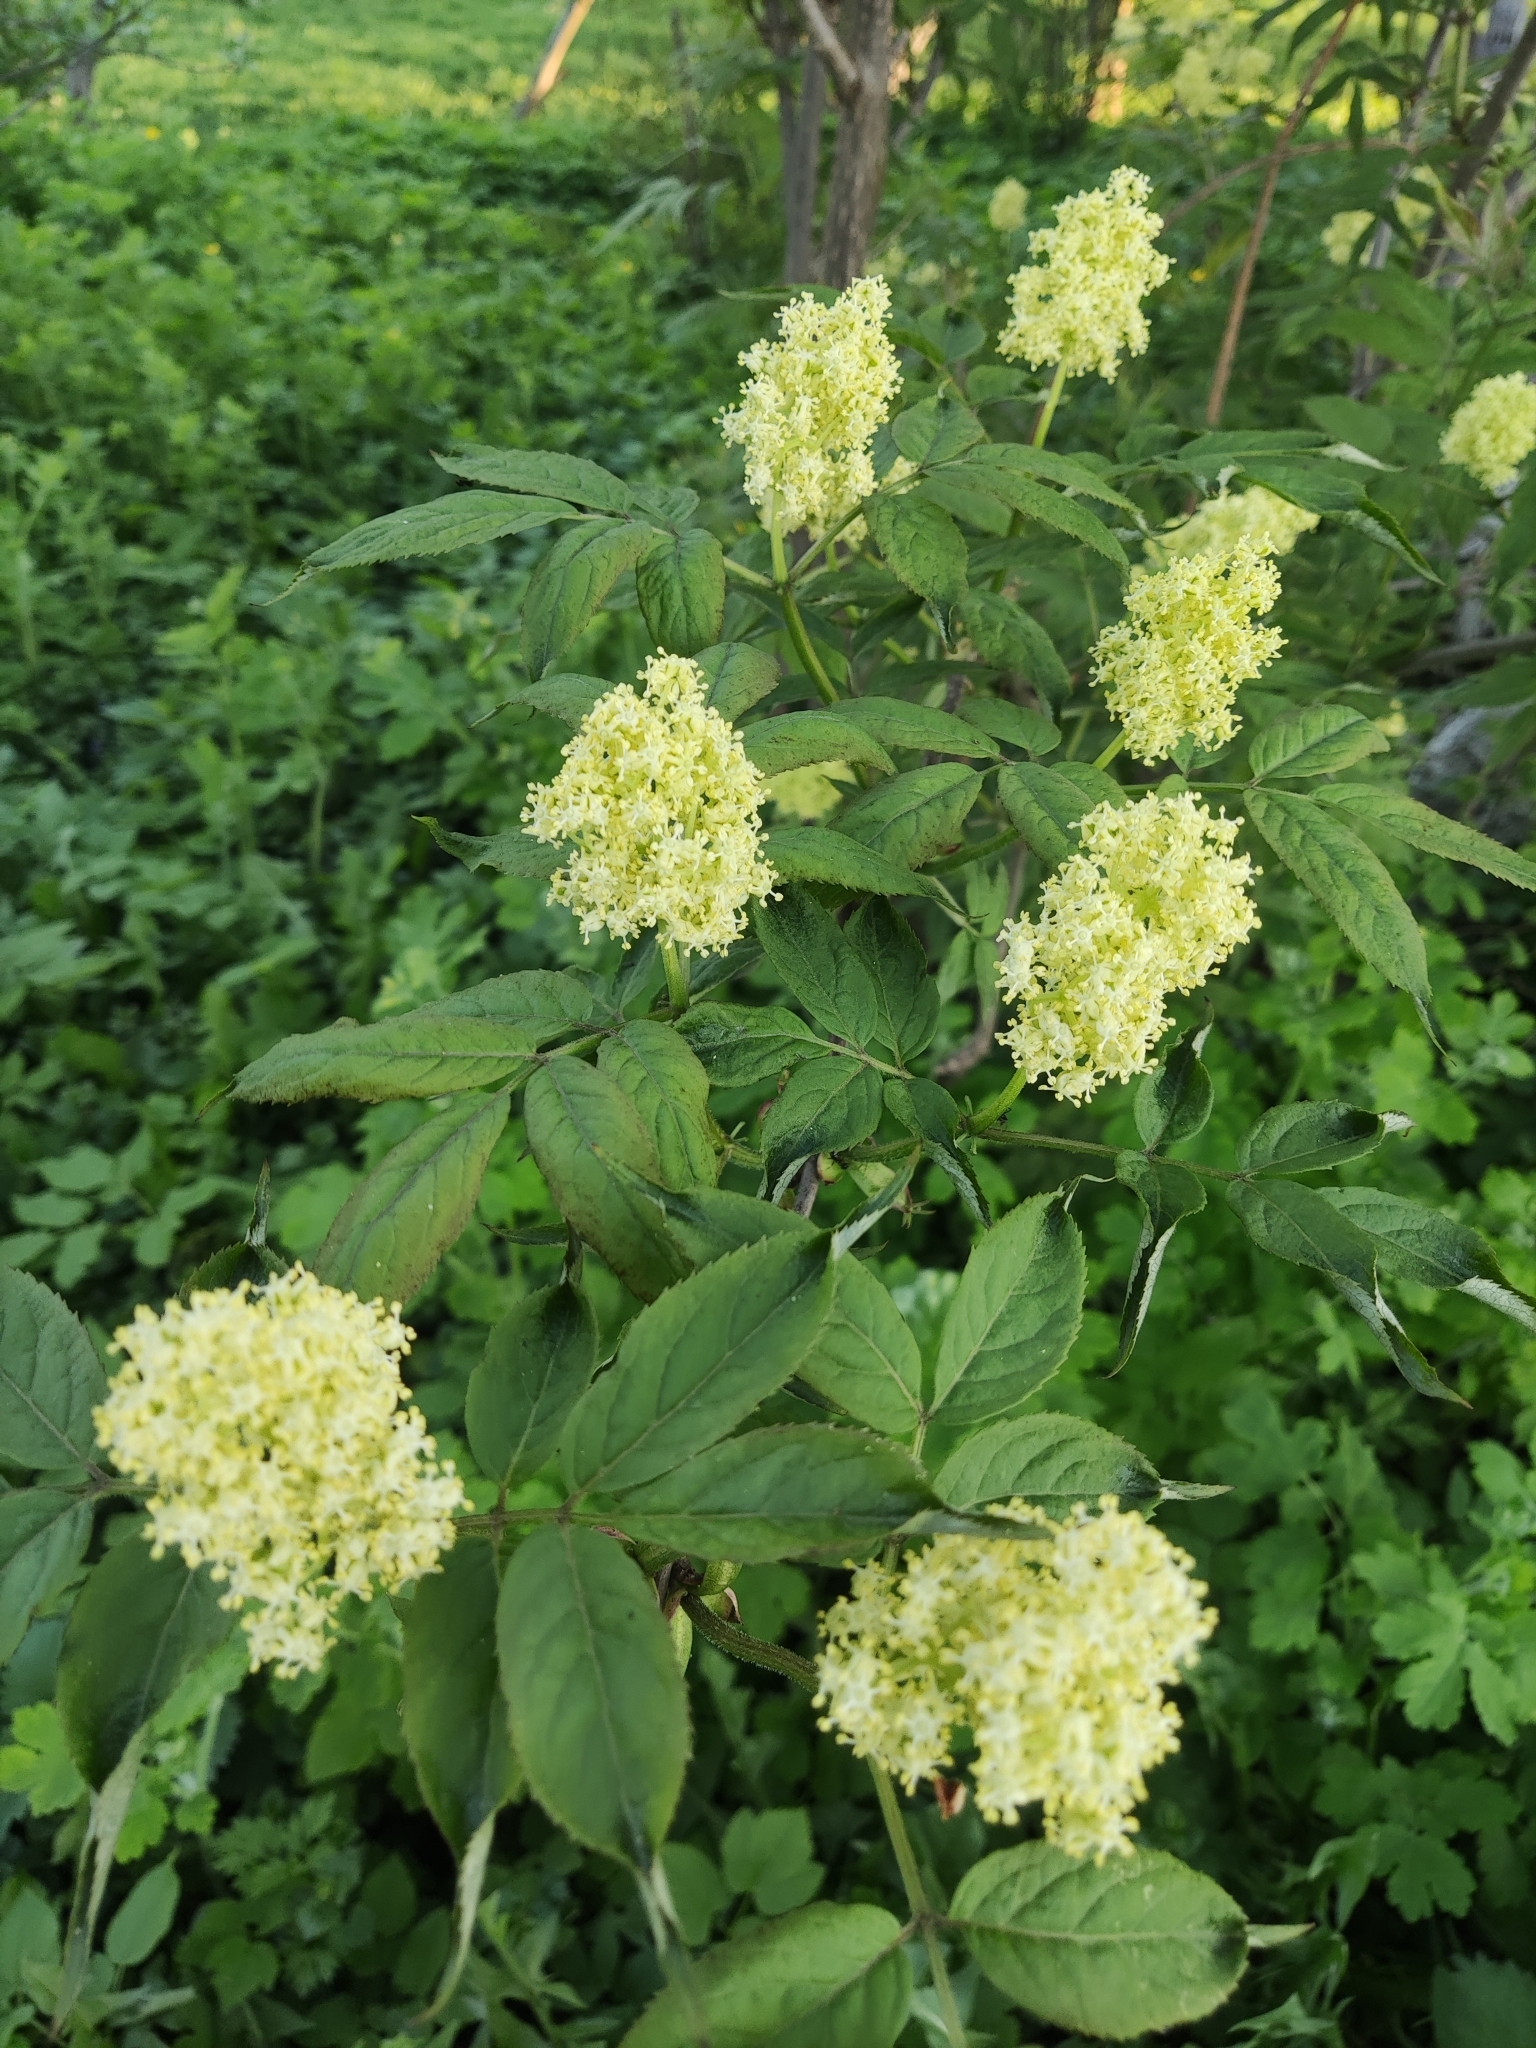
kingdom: Plantae
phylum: Tracheophyta
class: Magnoliopsida
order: Dipsacales
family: Viburnaceae
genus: Sambucus
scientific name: Sambucus racemosa
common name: Red-berried elder
